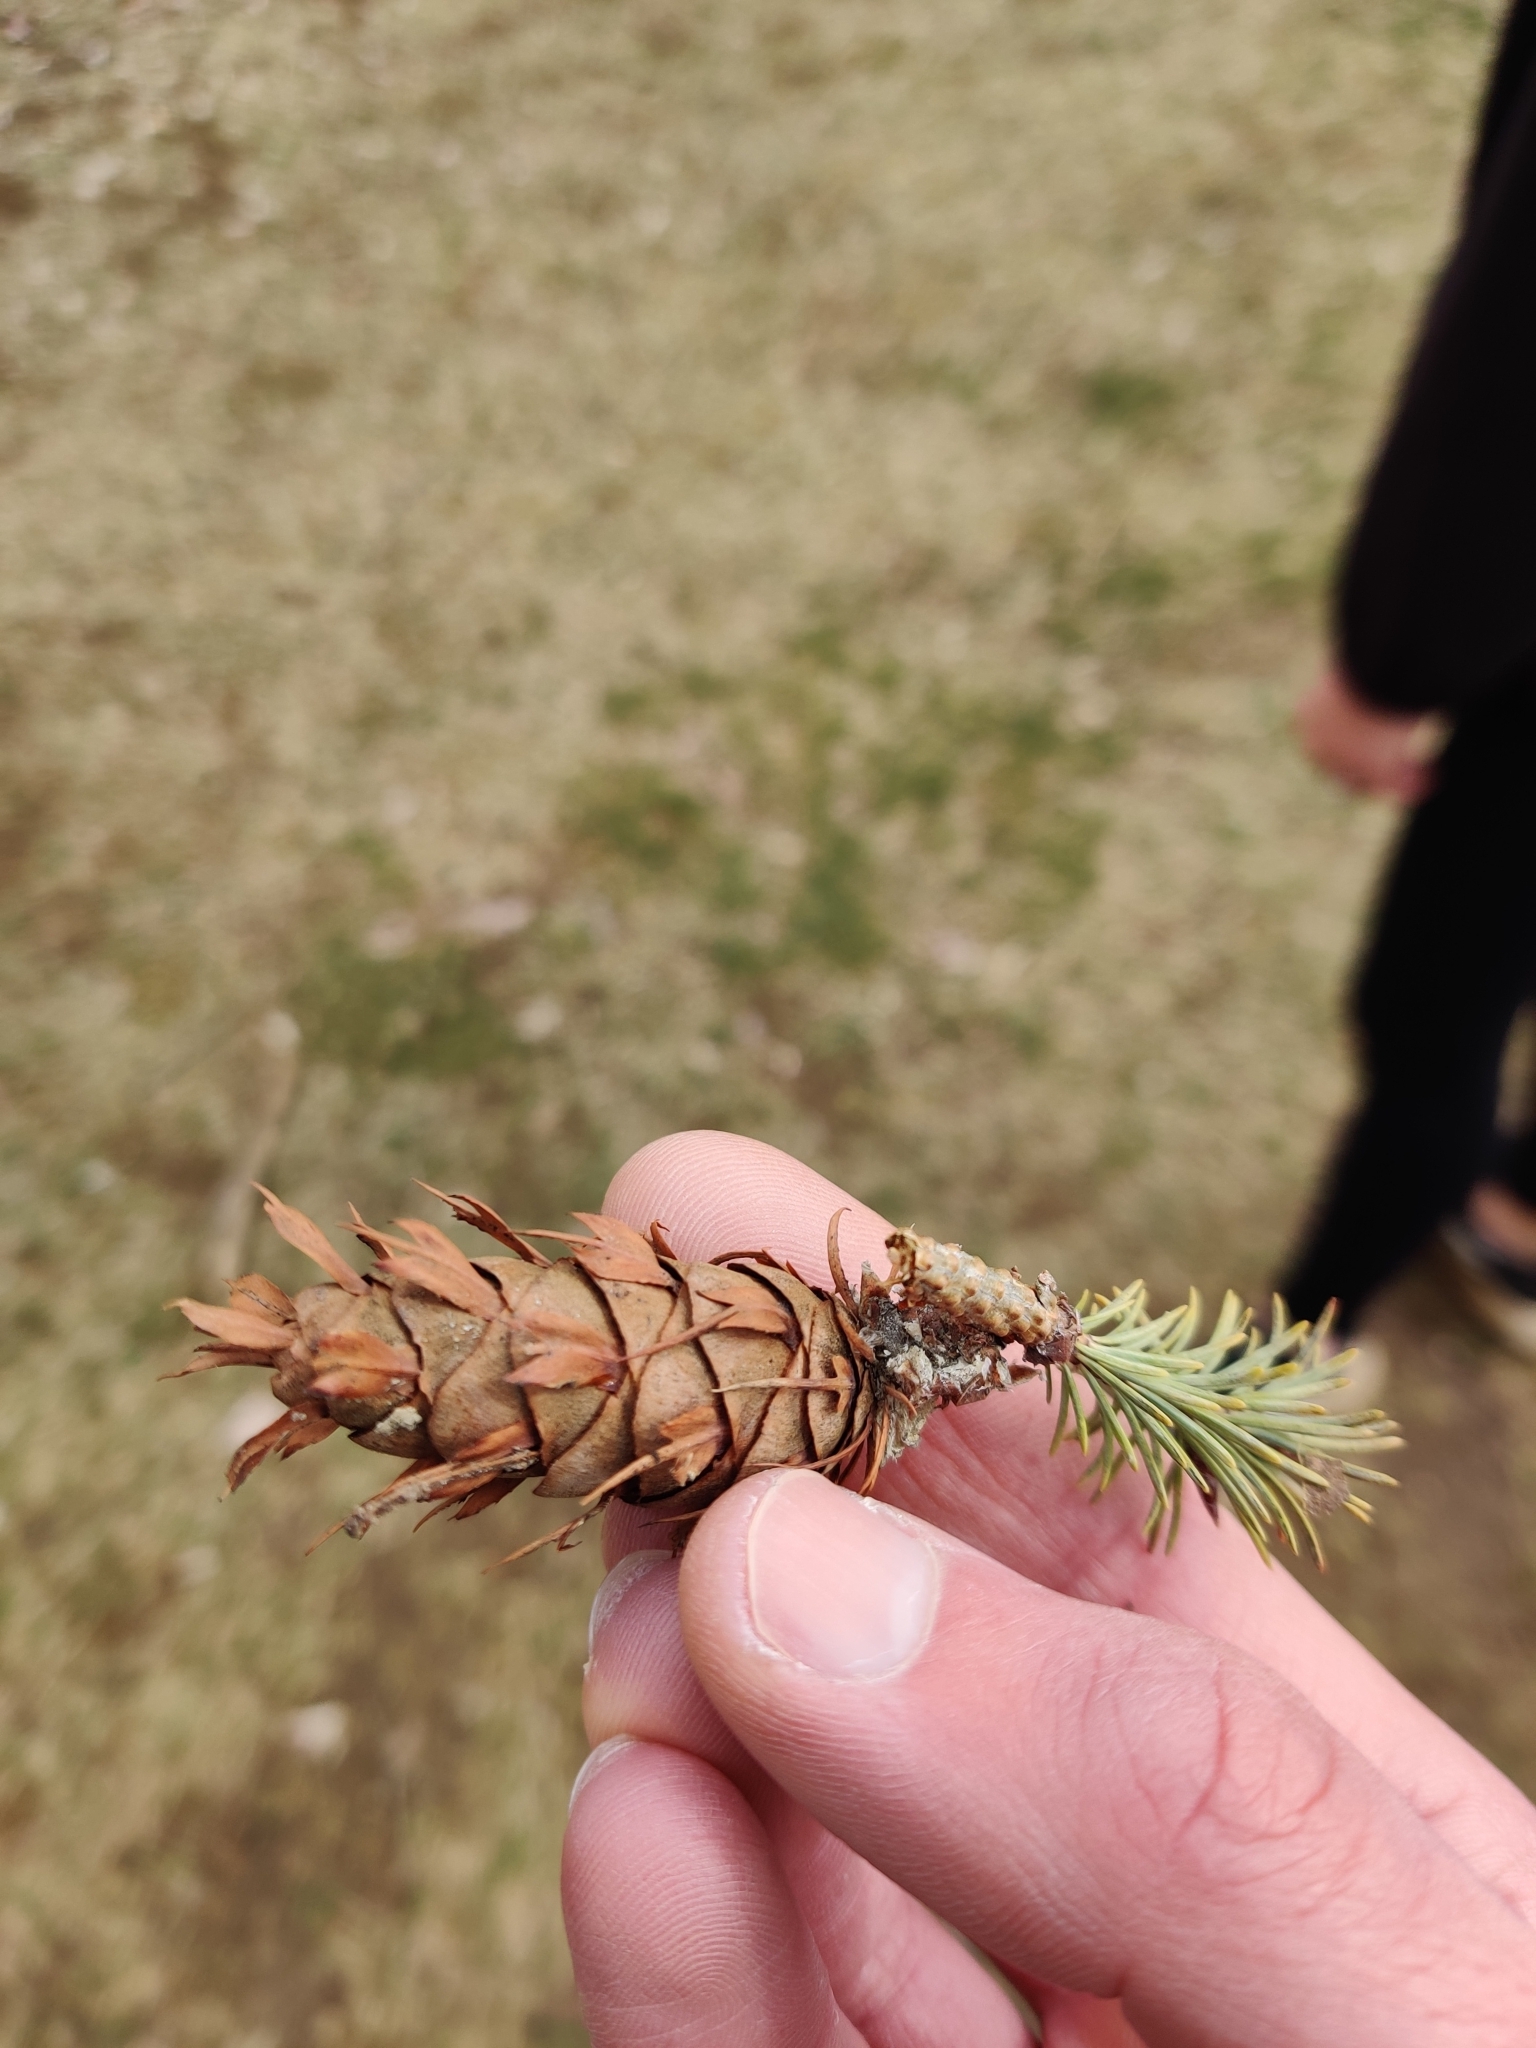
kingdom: Plantae
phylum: Tracheophyta
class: Pinopsida
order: Pinales
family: Pinaceae
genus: Pseudotsuga
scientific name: Pseudotsuga menziesii
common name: Douglas fir
